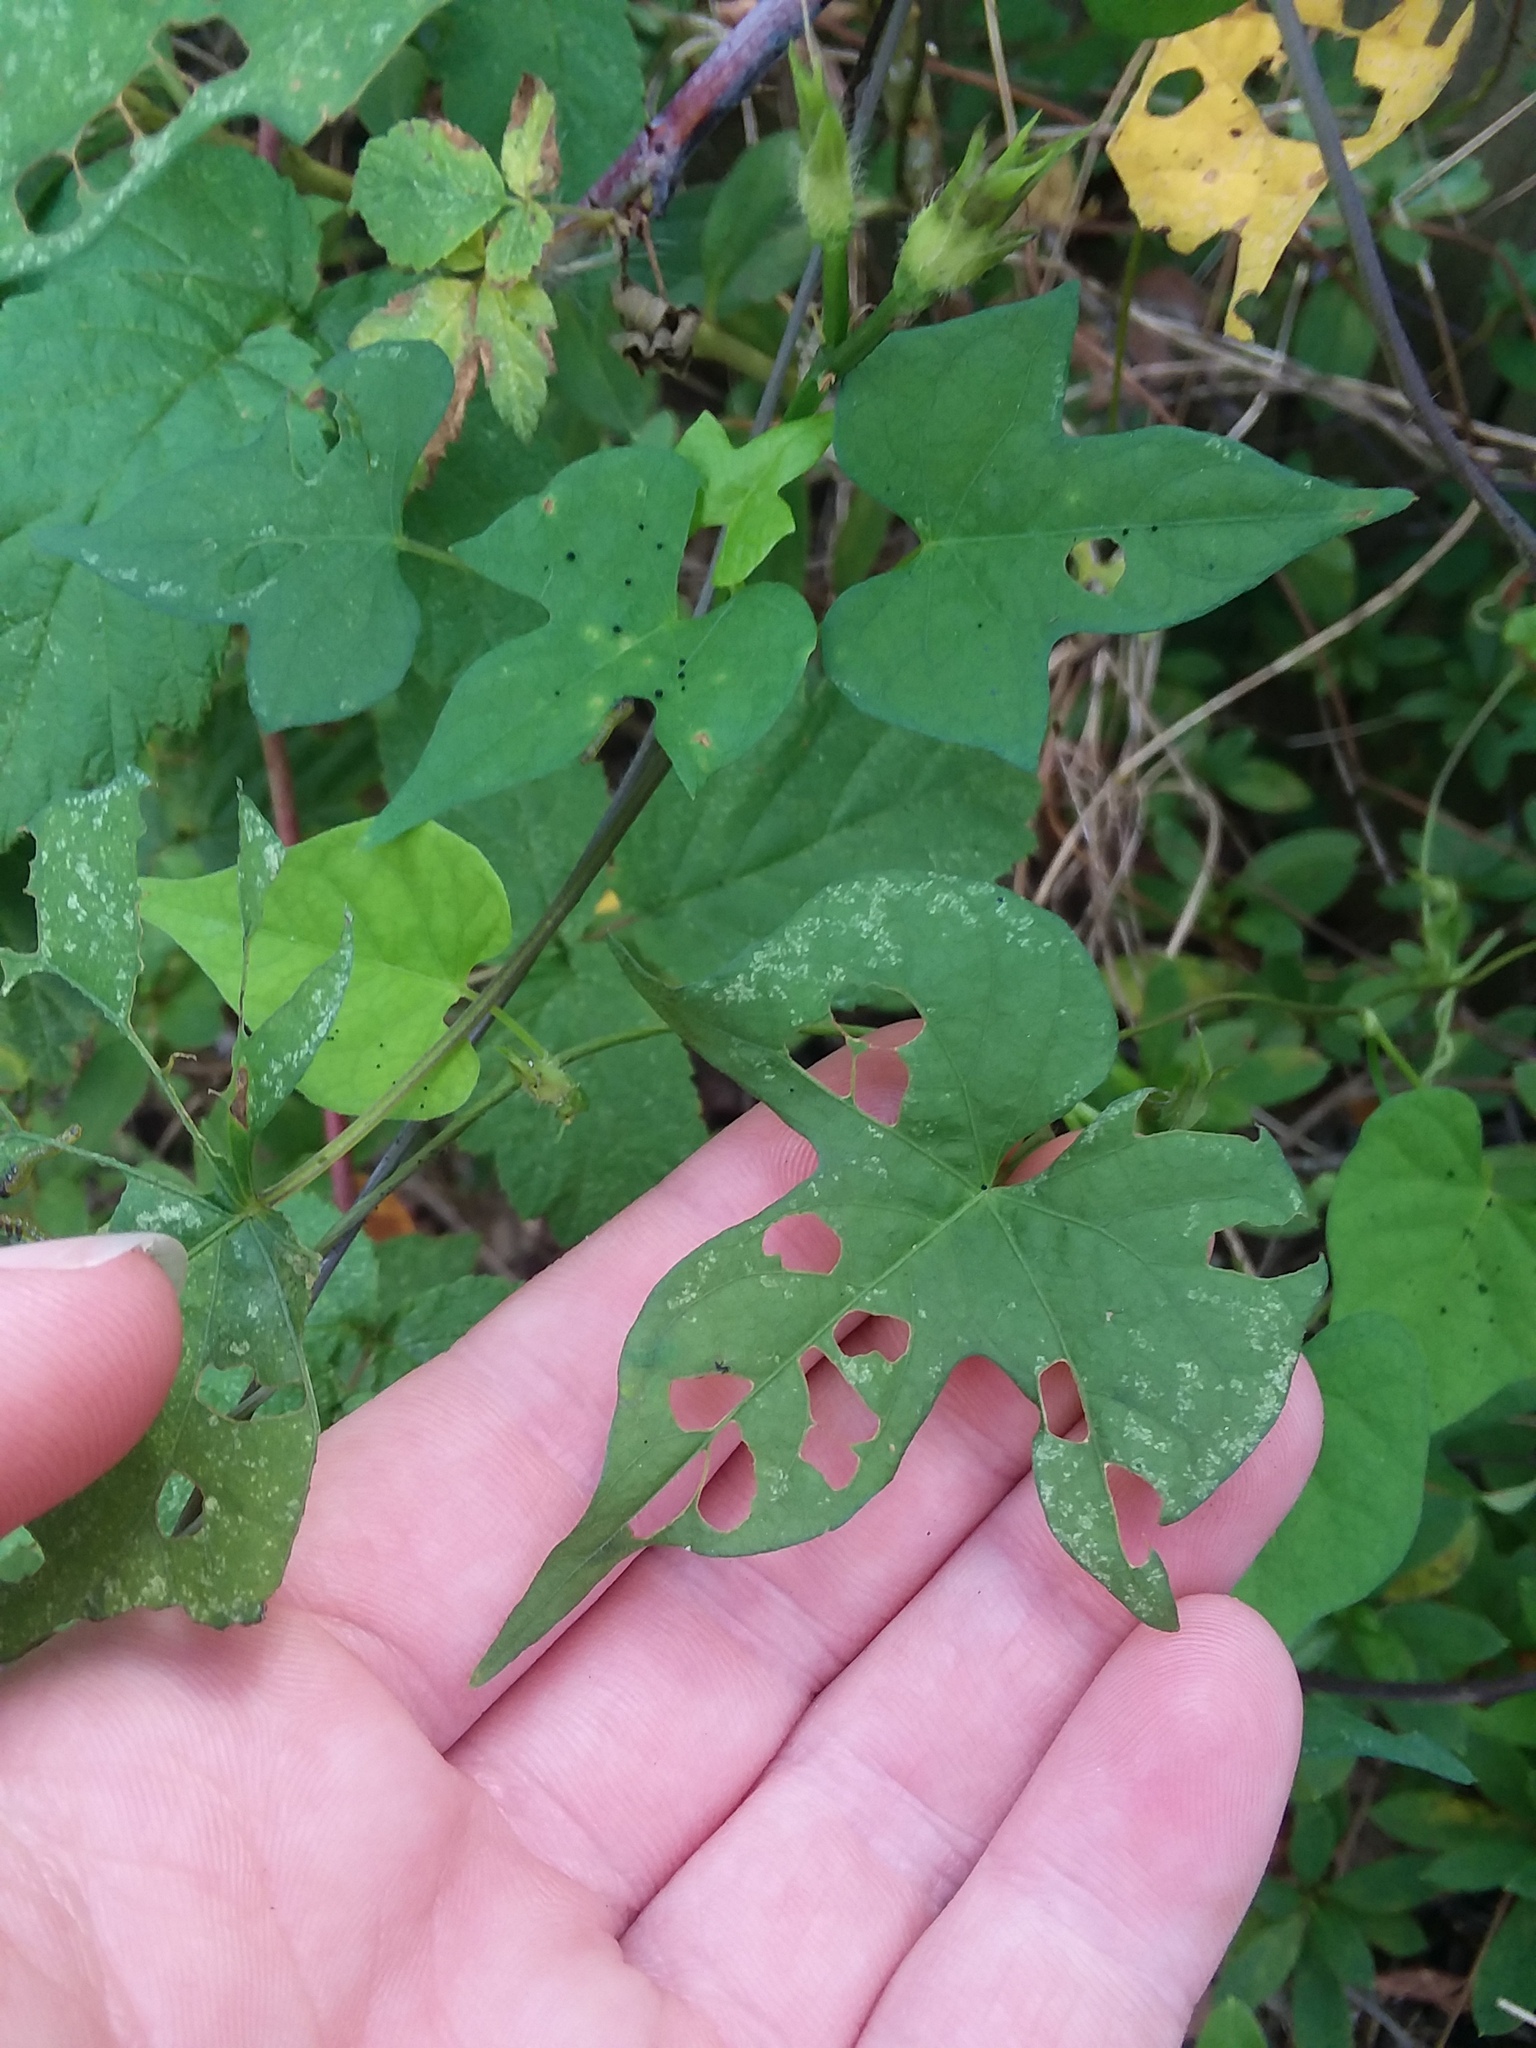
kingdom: Plantae
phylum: Tracheophyta
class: Magnoliopsida
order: Solanales
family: Convolvulaceae
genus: Ipomoea
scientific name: Ipomoea cordatotriloba
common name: Cotton morning glory
